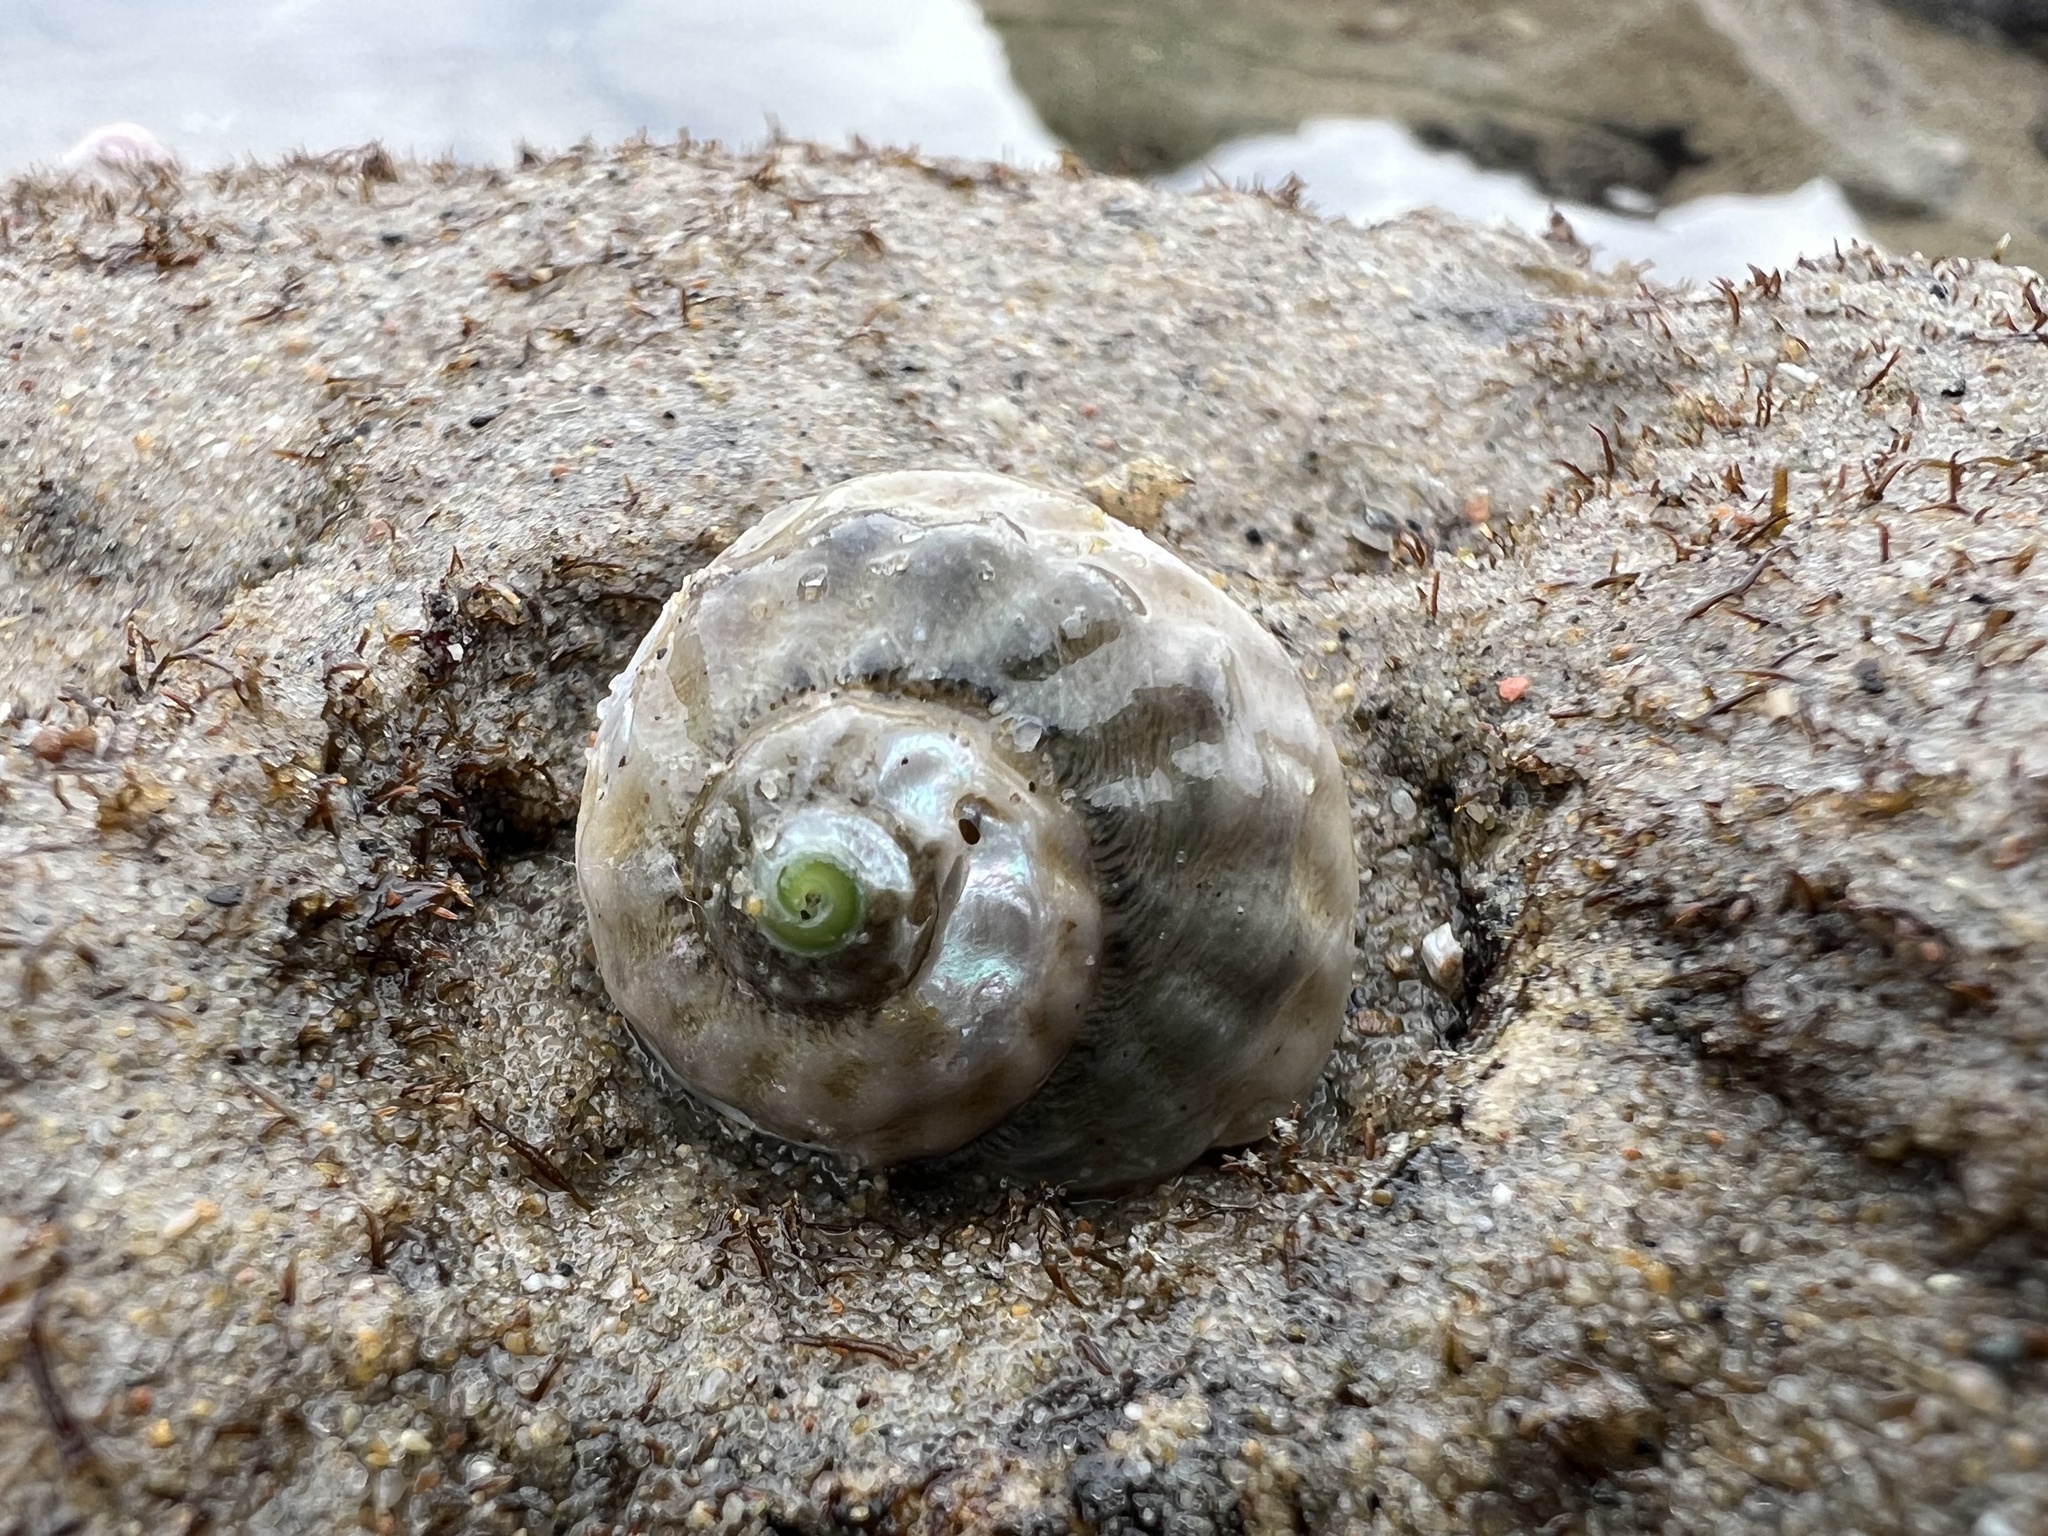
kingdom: Animalia
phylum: Mollusca
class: Gastropoda
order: Trochida
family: Tegulidae
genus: Tegula
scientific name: Tegula aureotincta
